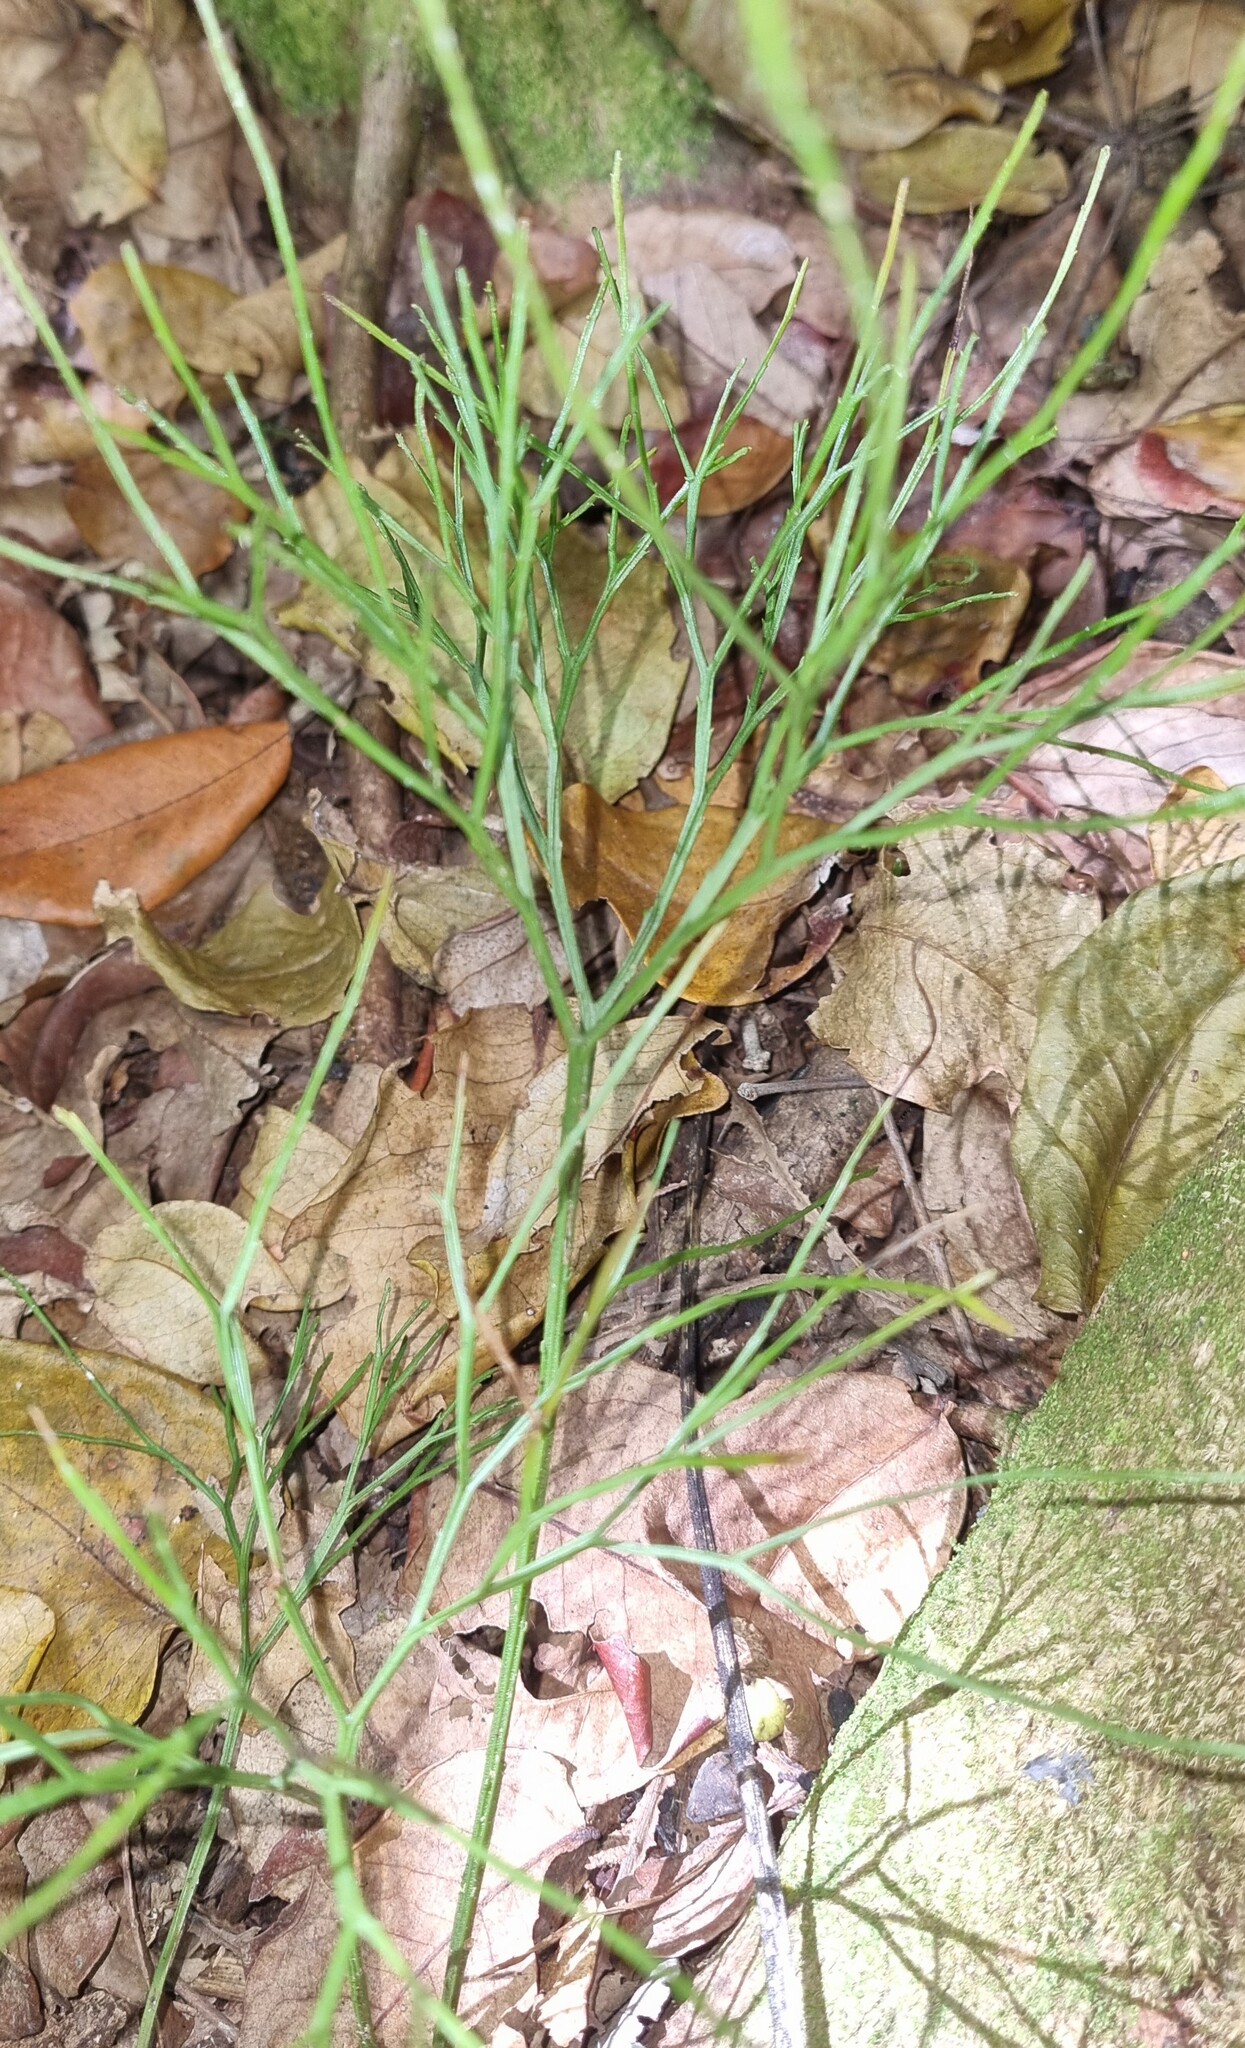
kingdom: Plantae
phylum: Tracheophyta
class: Polypodiopsida
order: Psilotales
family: Psilotaceae
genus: Psilotum
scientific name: Psilotum nudum
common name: Skeleton fork fern
